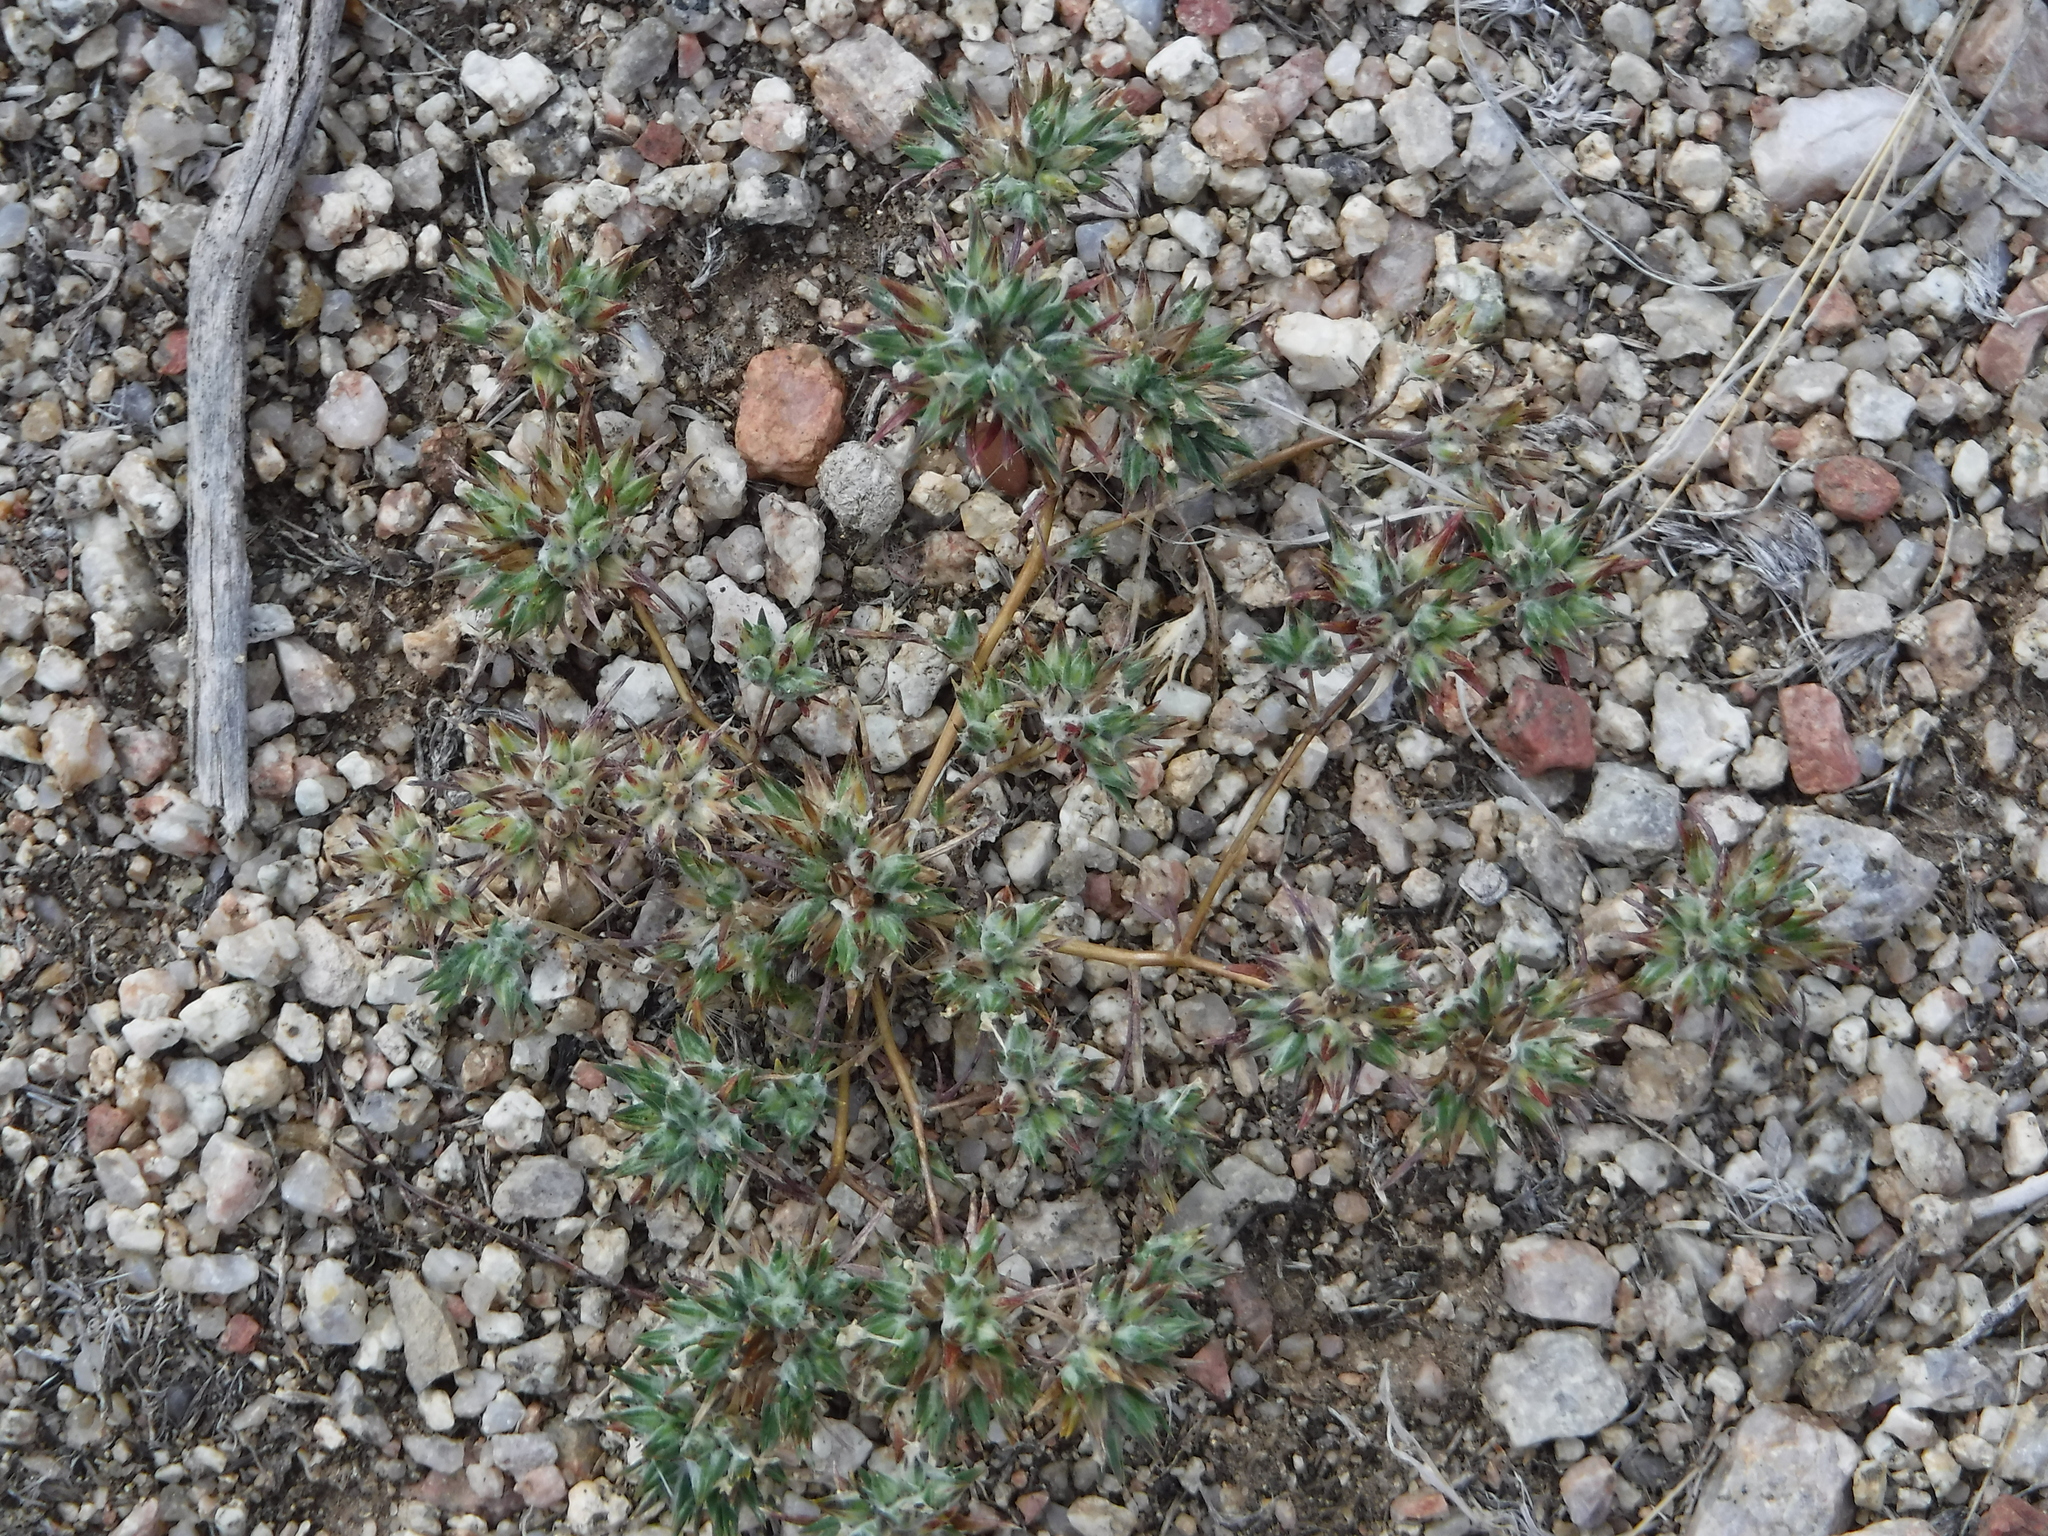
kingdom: Plantae
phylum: Tracheophyta
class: Magnoliopsida
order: Ericales
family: Polemoniaceae
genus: Eriastrum
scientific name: Eriastrum diffusum
